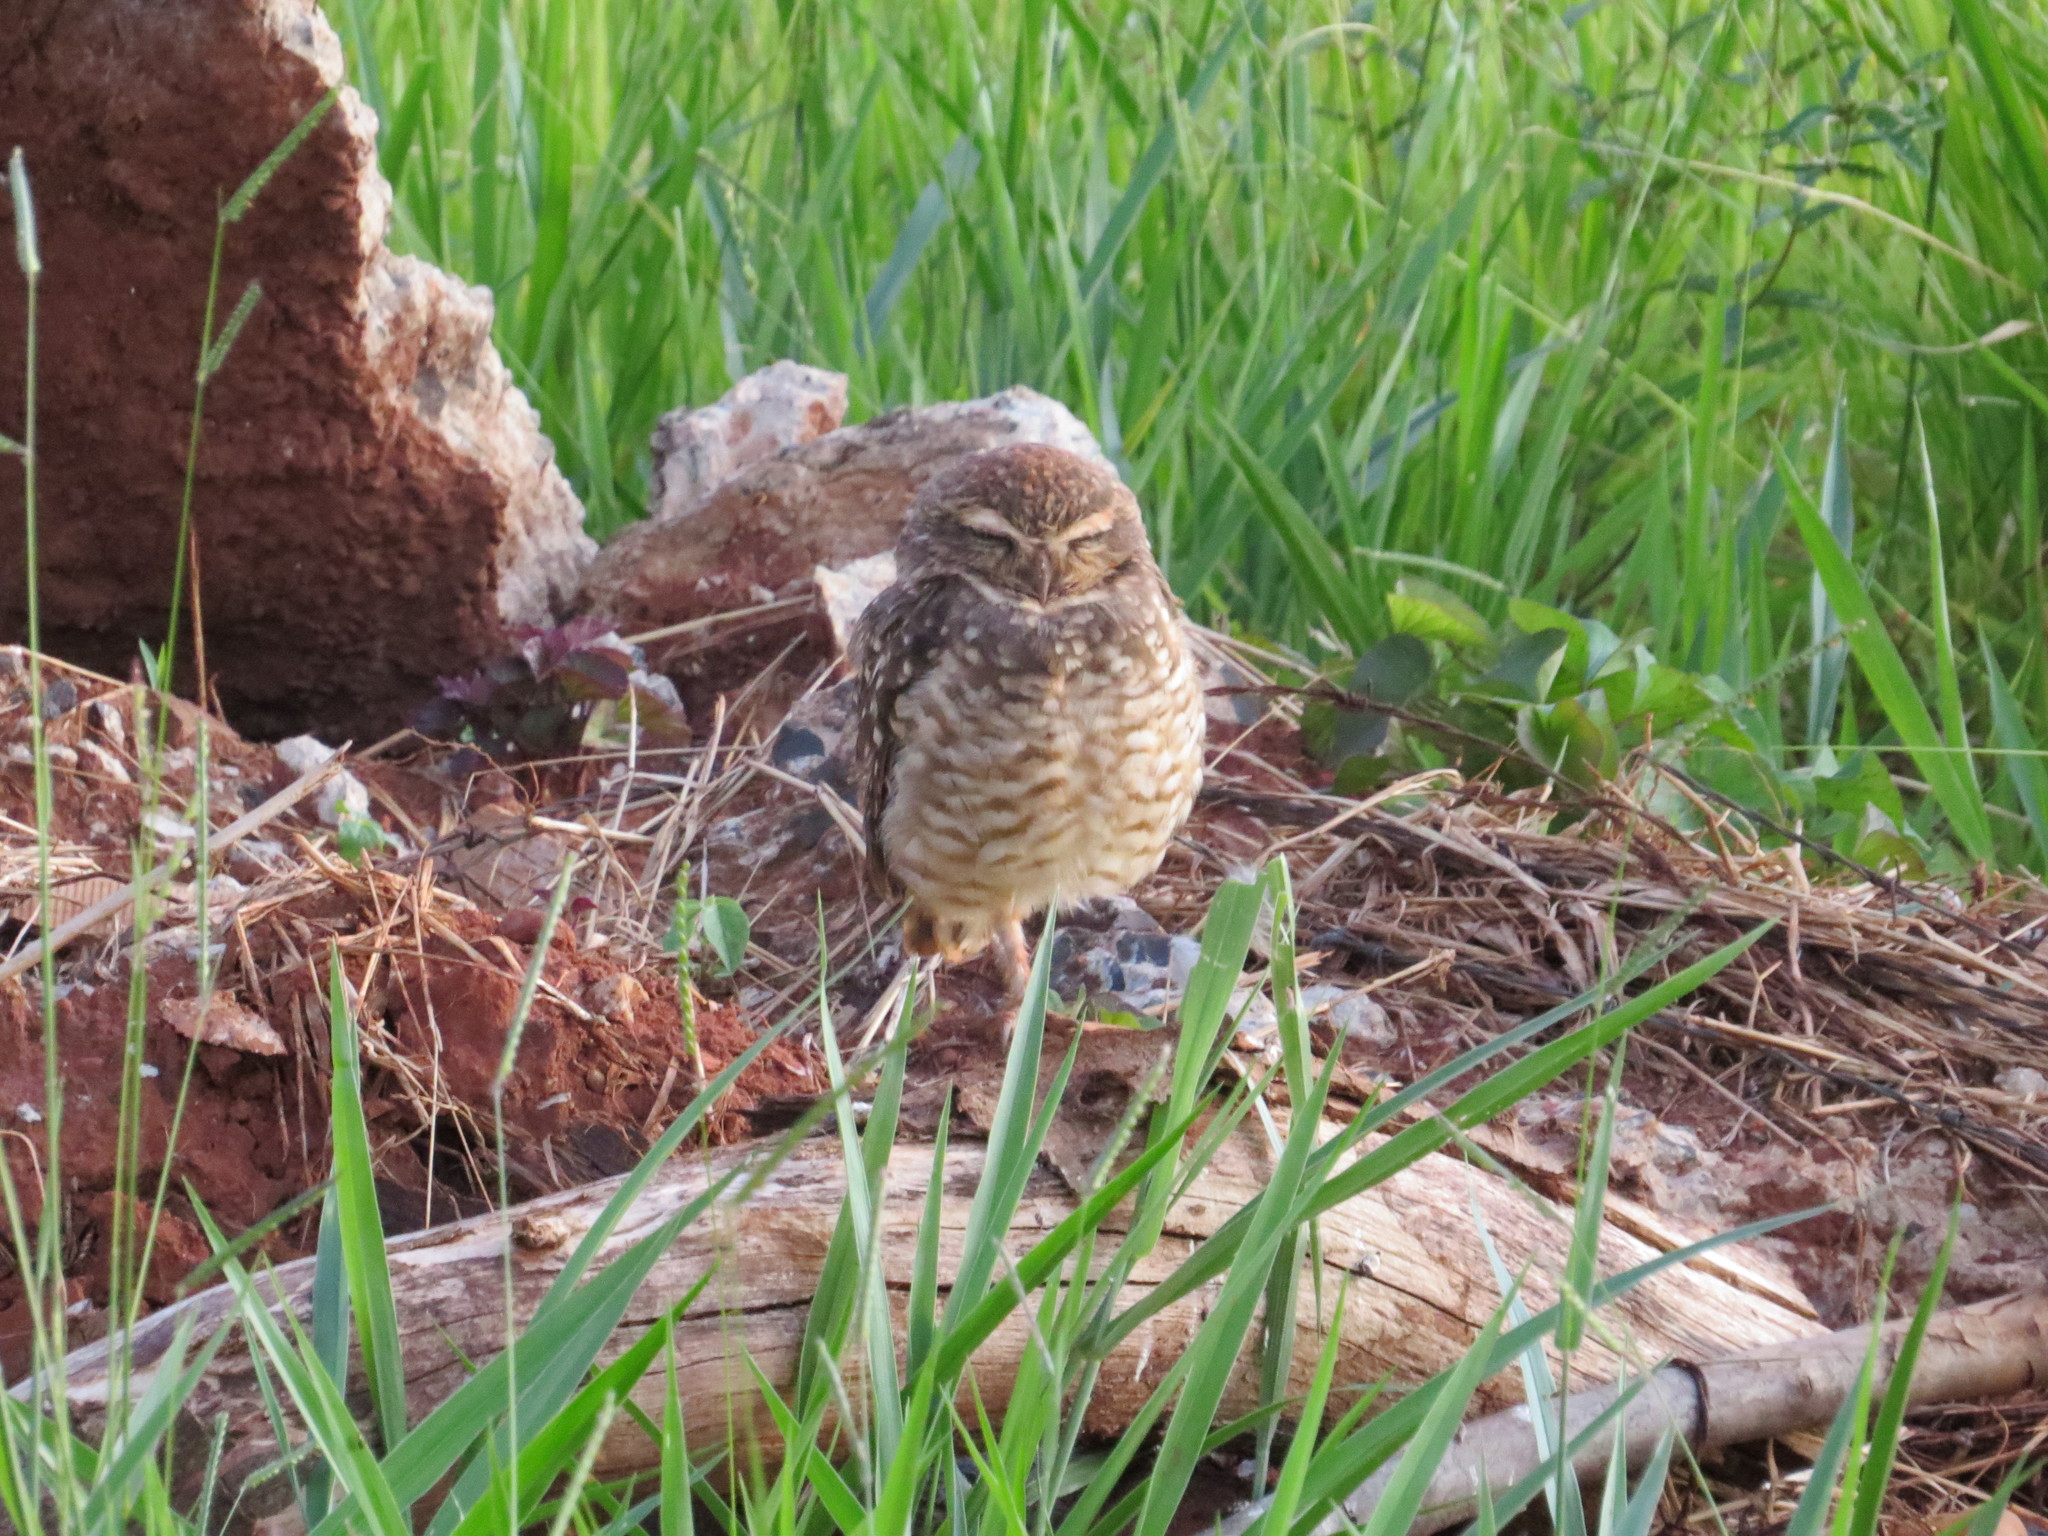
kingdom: Animalia
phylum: Chordata
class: Aves
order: Strigiformes
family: Strigidae
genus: Athene
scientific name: Athene cunicularia
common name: Burrowing owl
